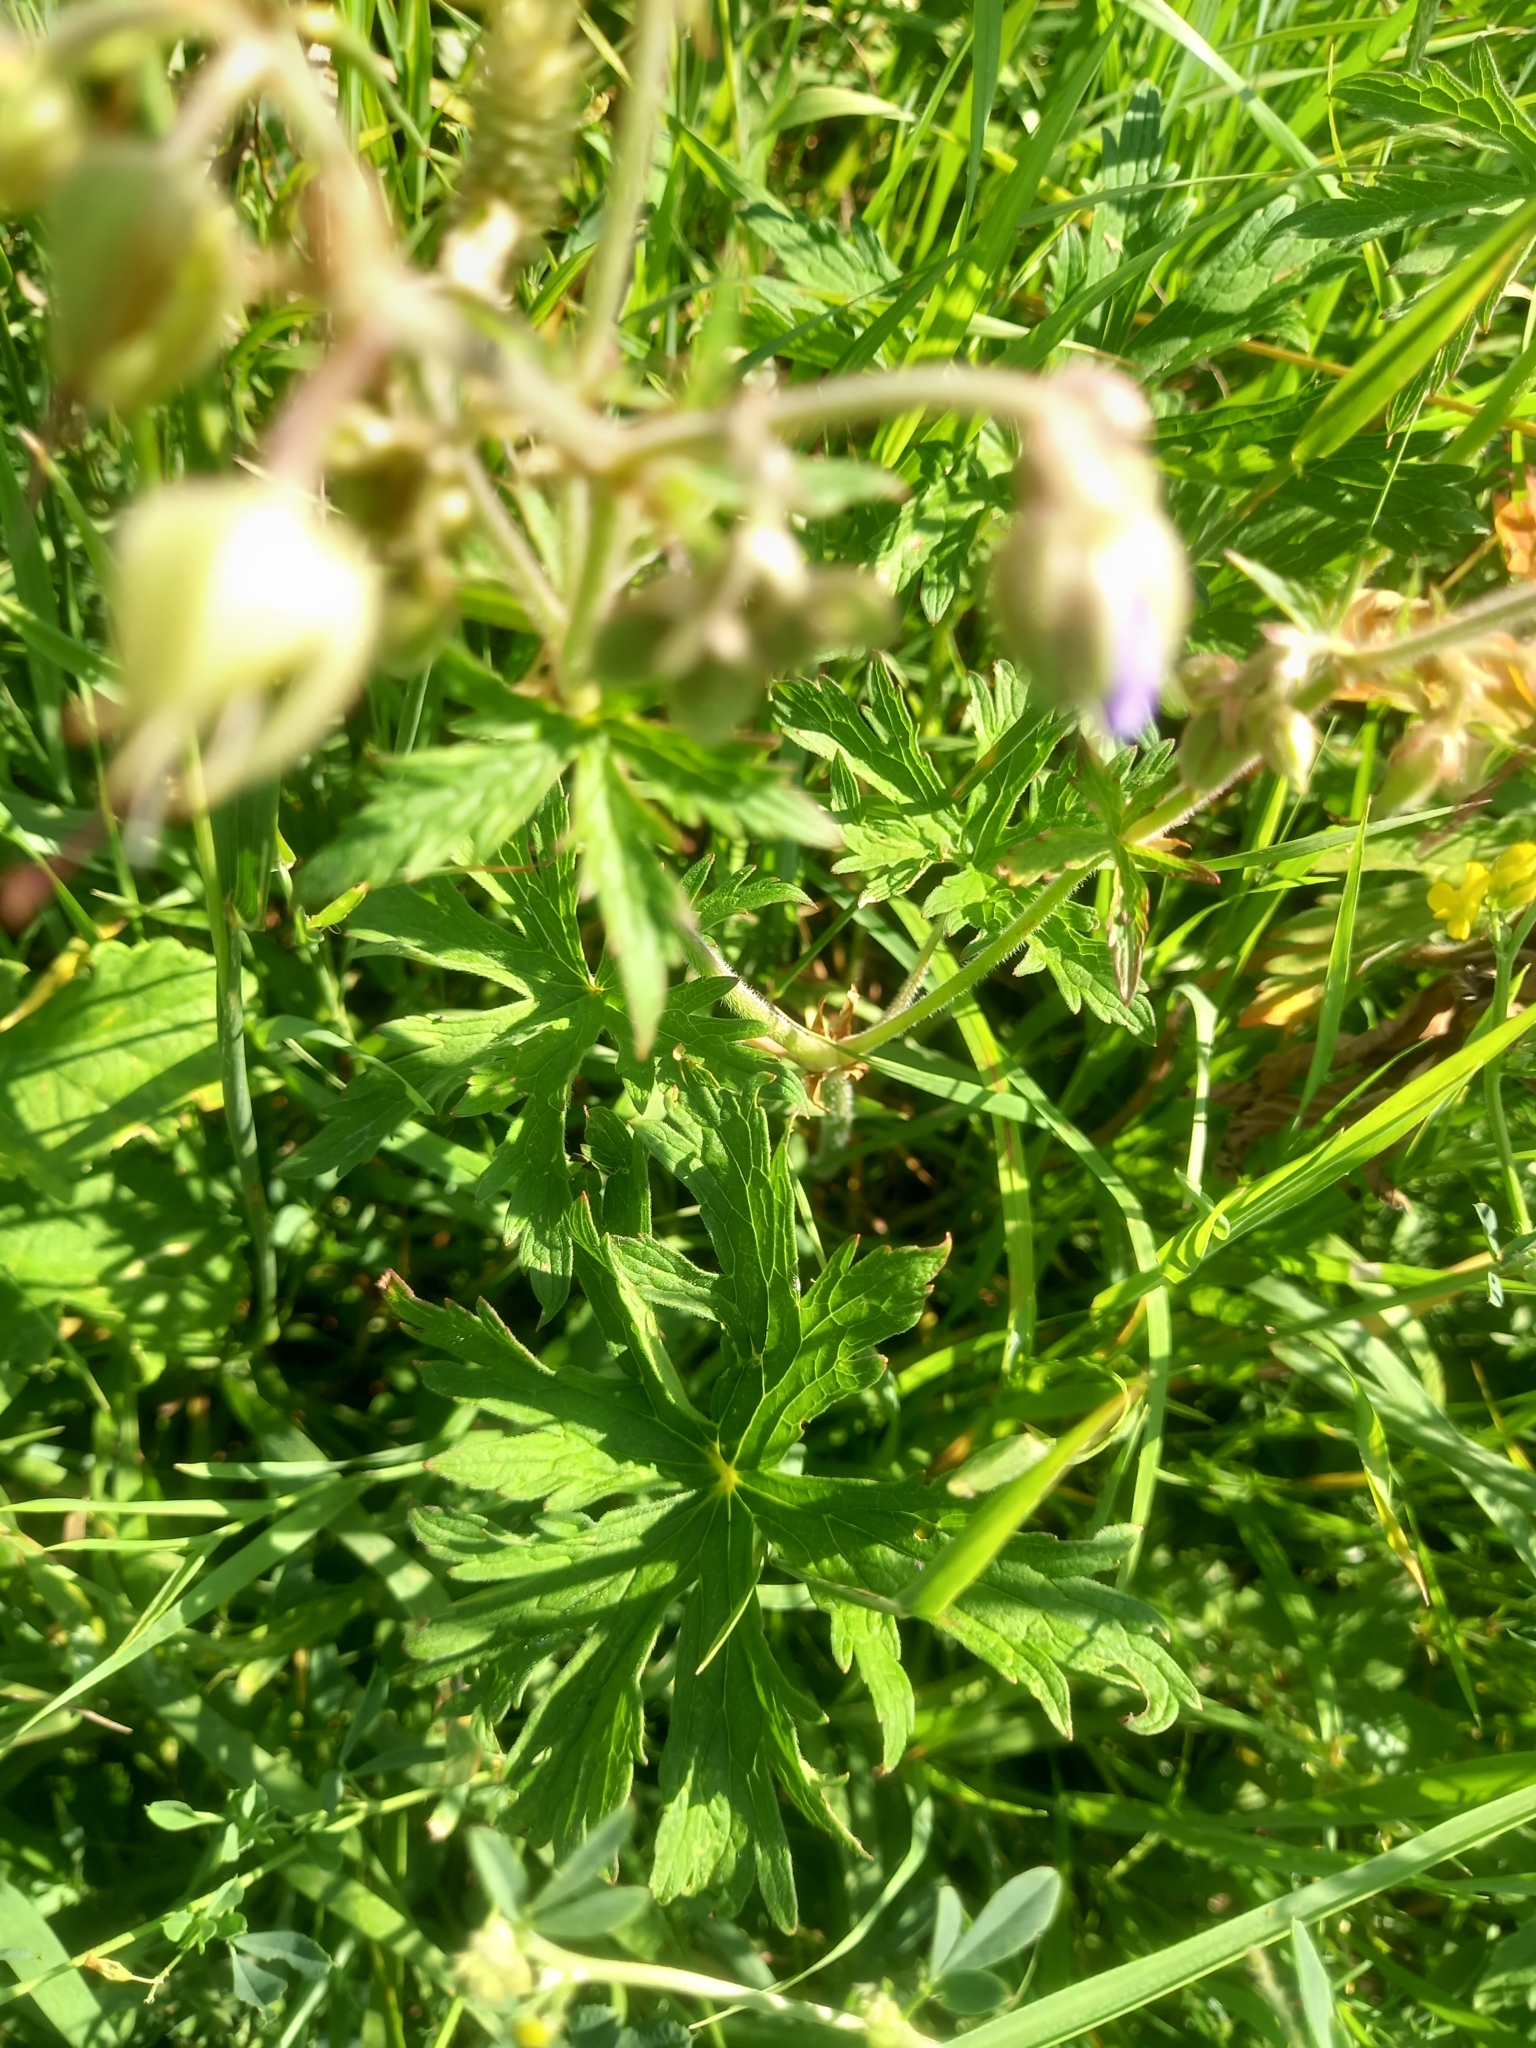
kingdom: Plantae
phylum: Tracheophyta
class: Magnoliopsida
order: Geraniales
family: Geraniaceae
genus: Geranium
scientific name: Geranium pratense
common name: Meadow crane's-bill
